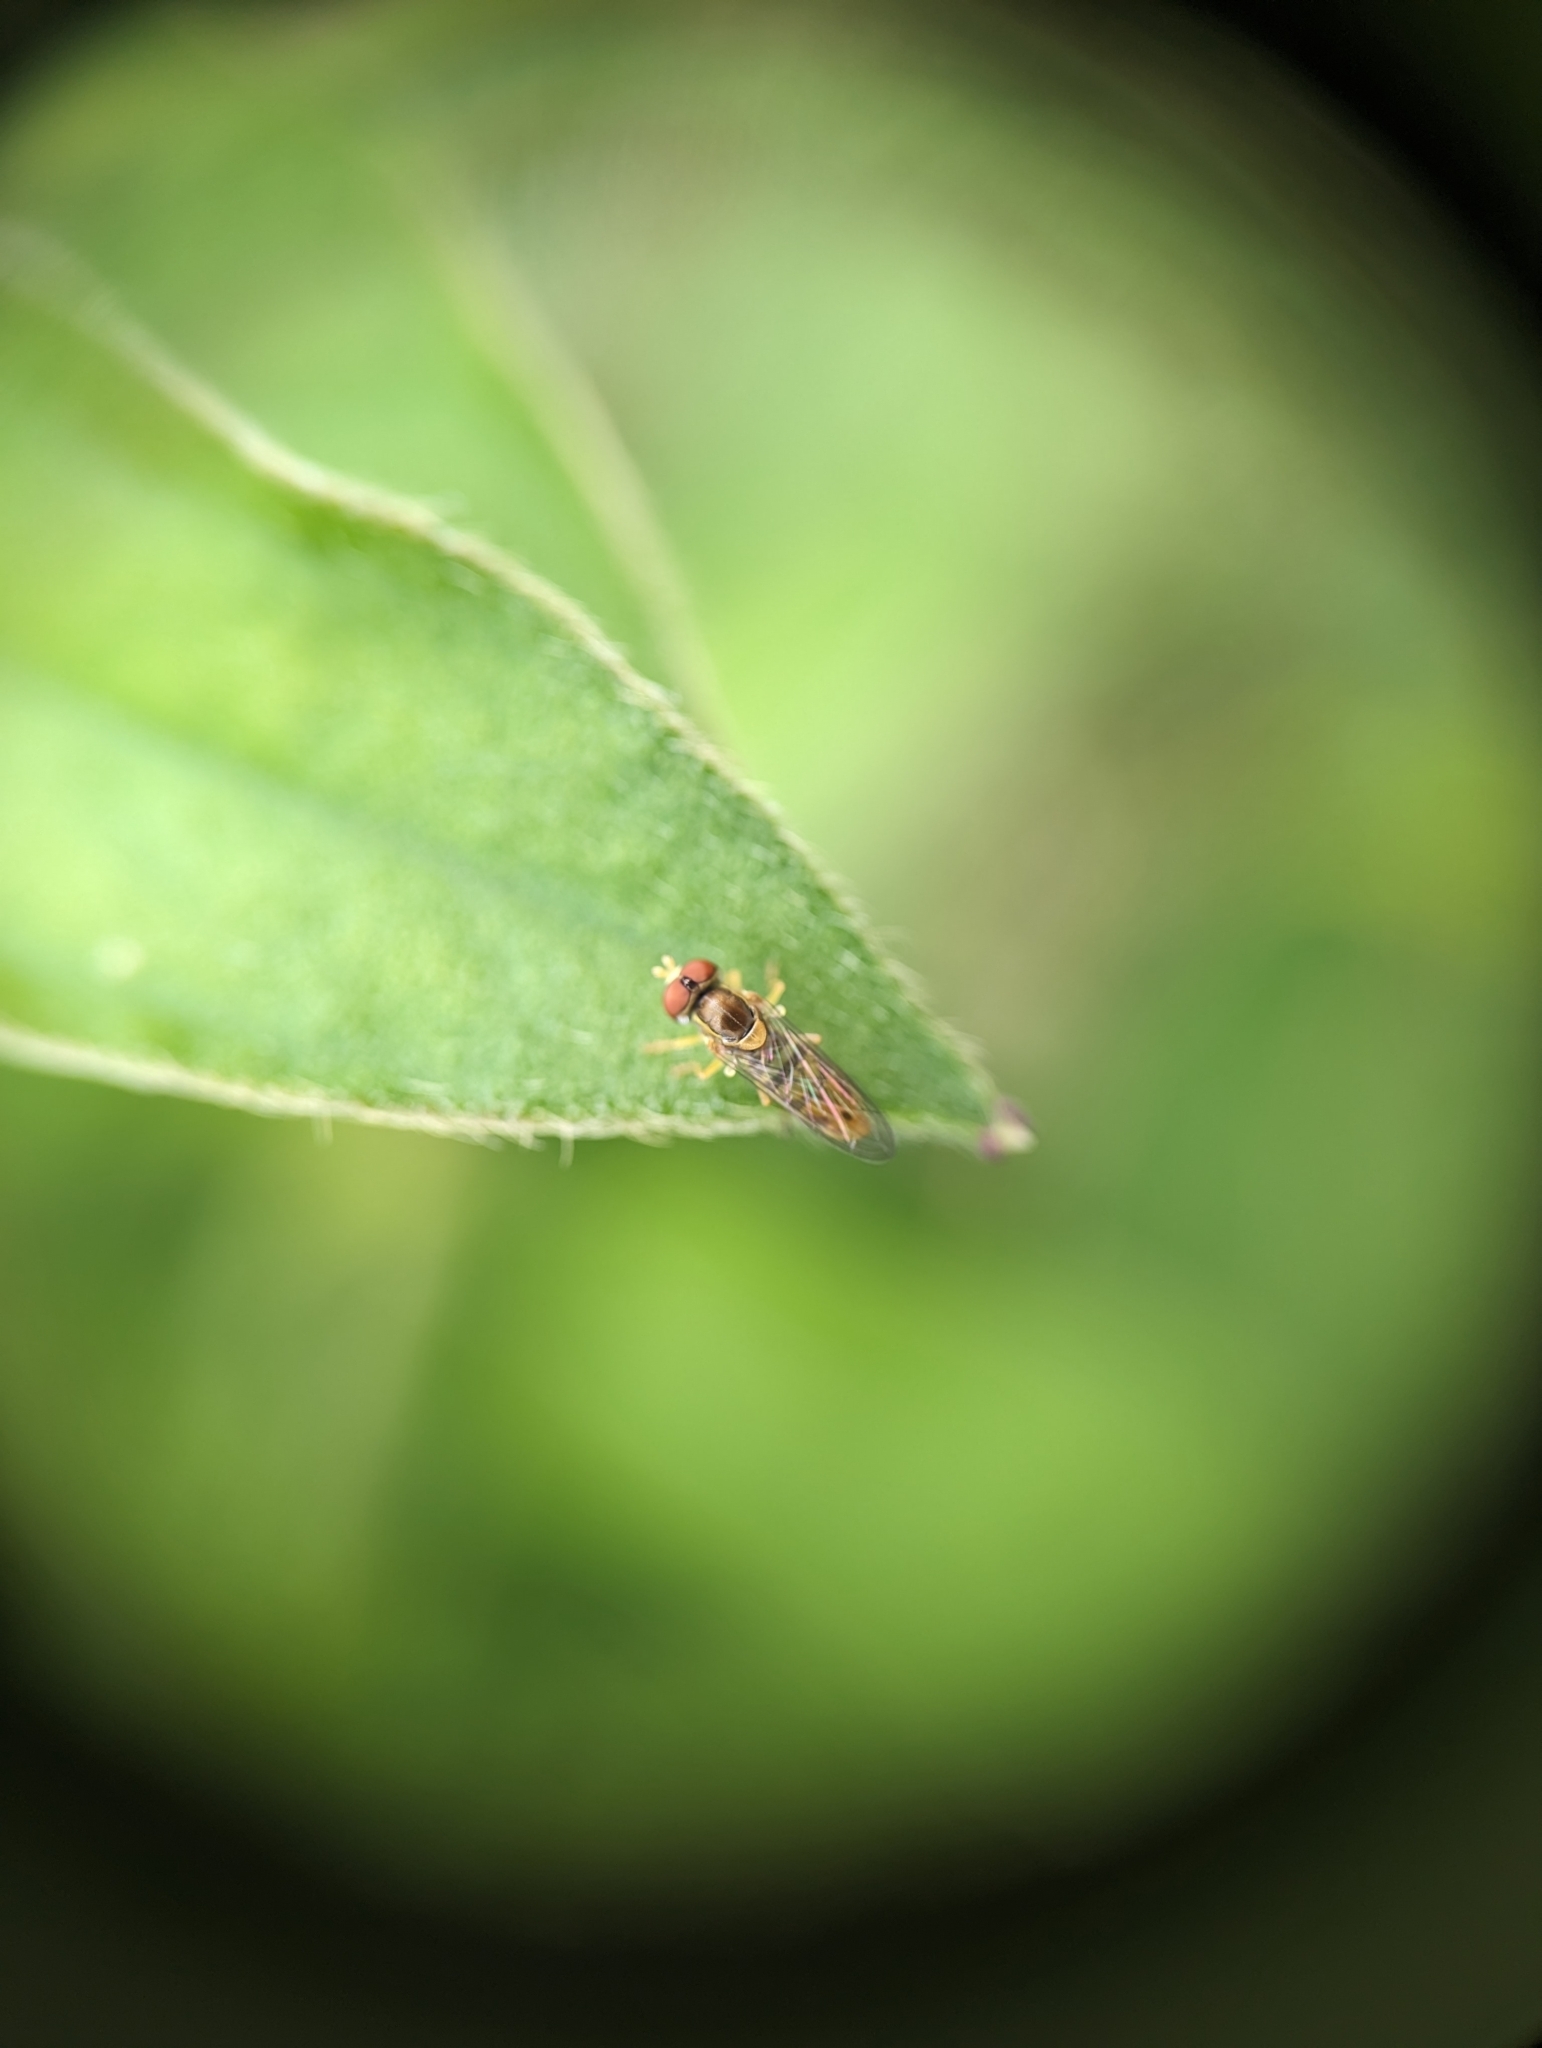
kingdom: Animalia
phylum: Arthropoda
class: Insecta
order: Diptera
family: Syrphidae
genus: Toxomerus
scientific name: Toxomerus marginatus
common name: Syrphid fly
